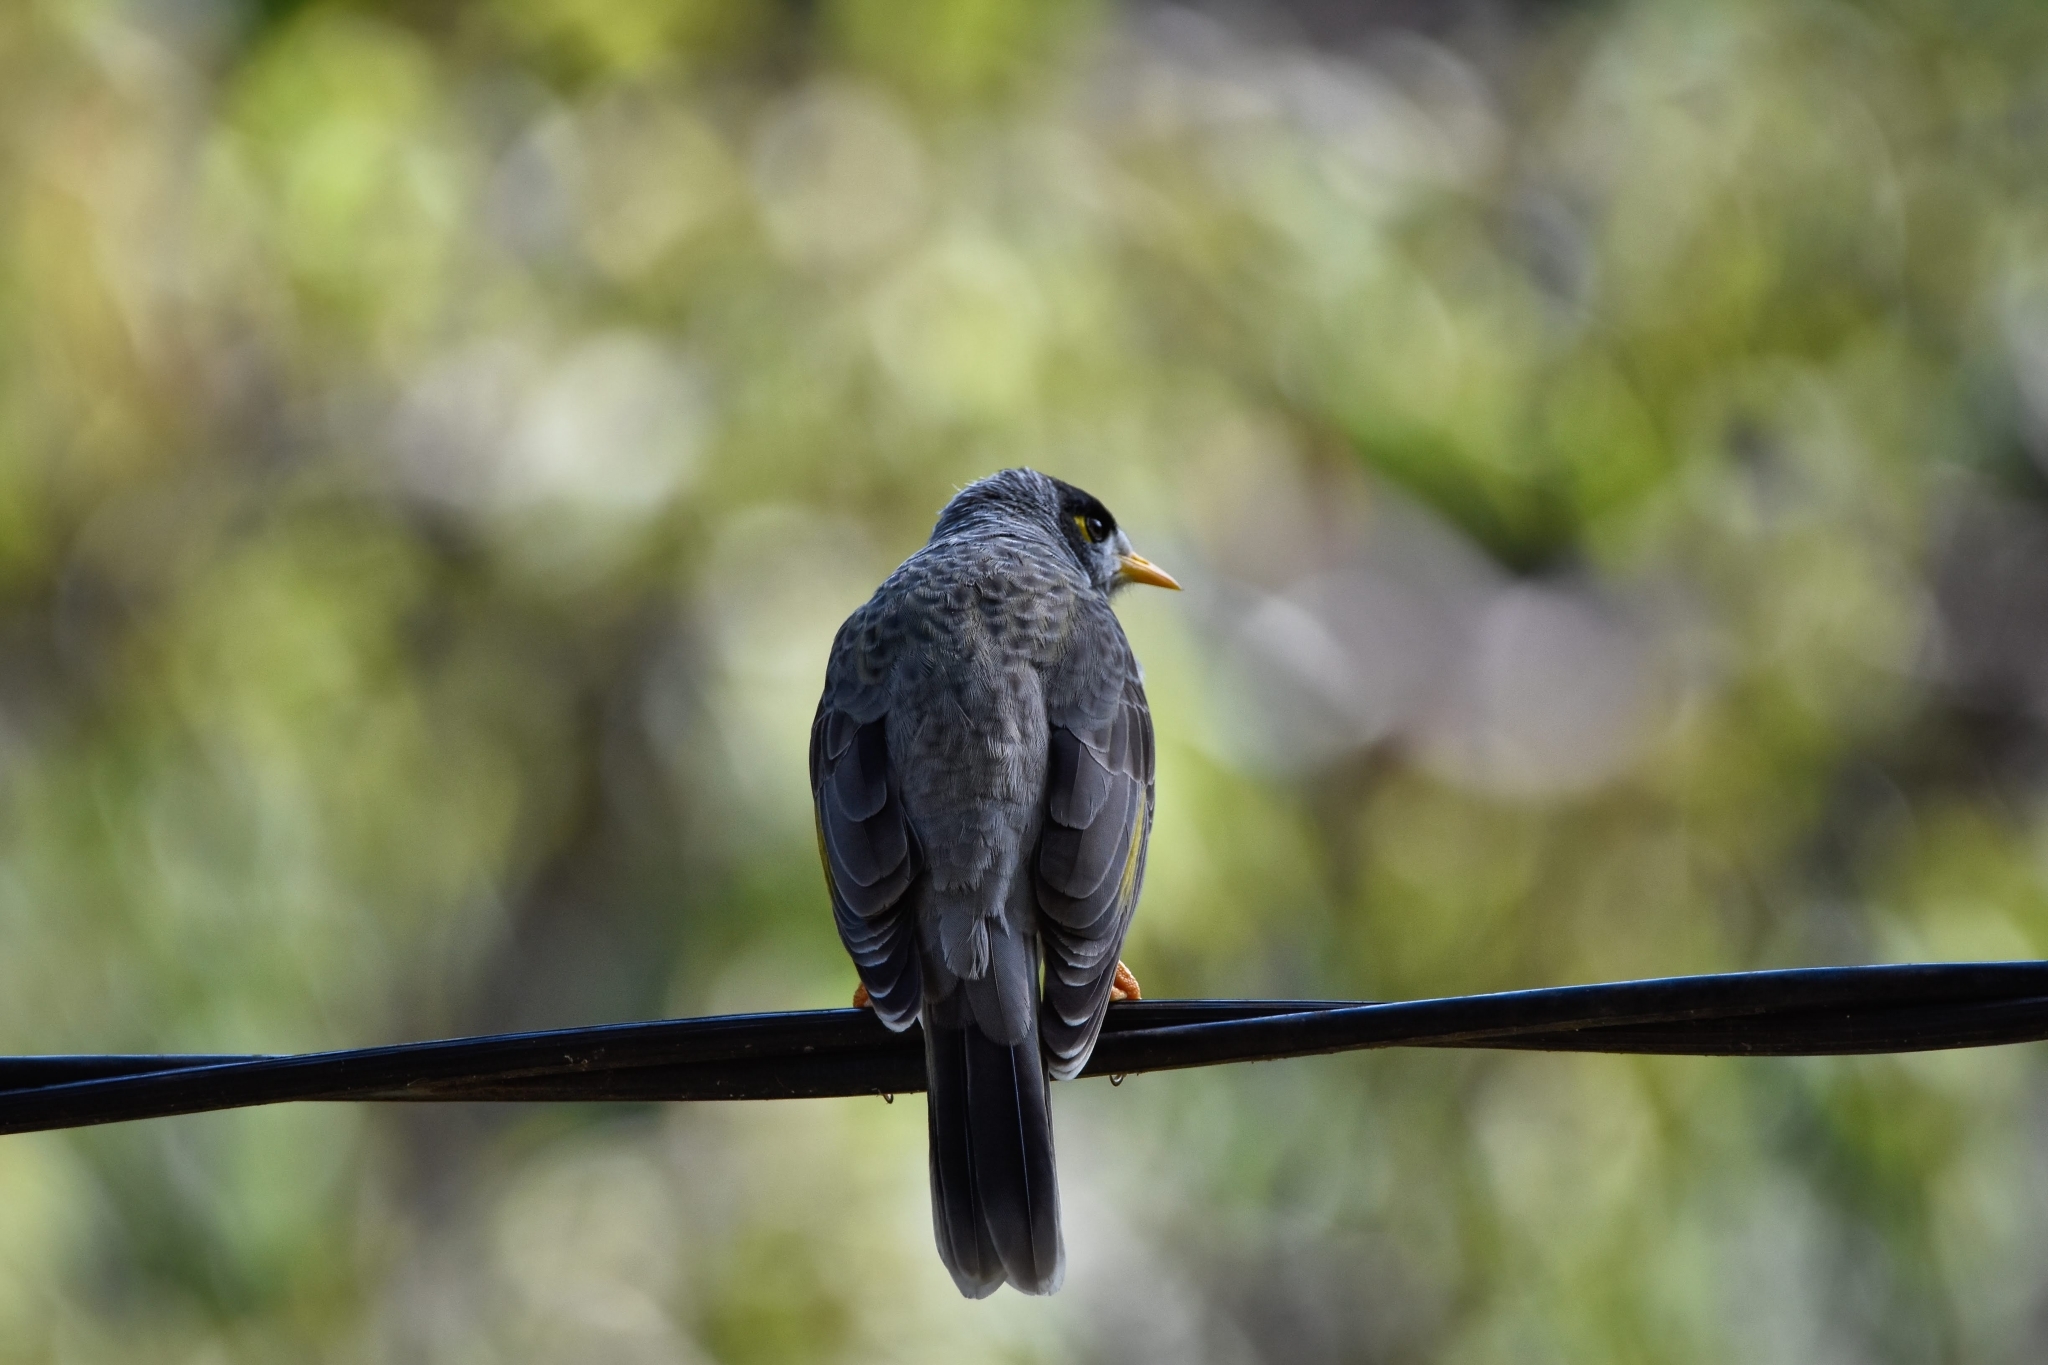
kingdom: Animalia
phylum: Chordata
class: Aves
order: Passeriformes
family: Meliphagidae
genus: Manorina
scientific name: Manorina melanocephala
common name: Noisy miner
